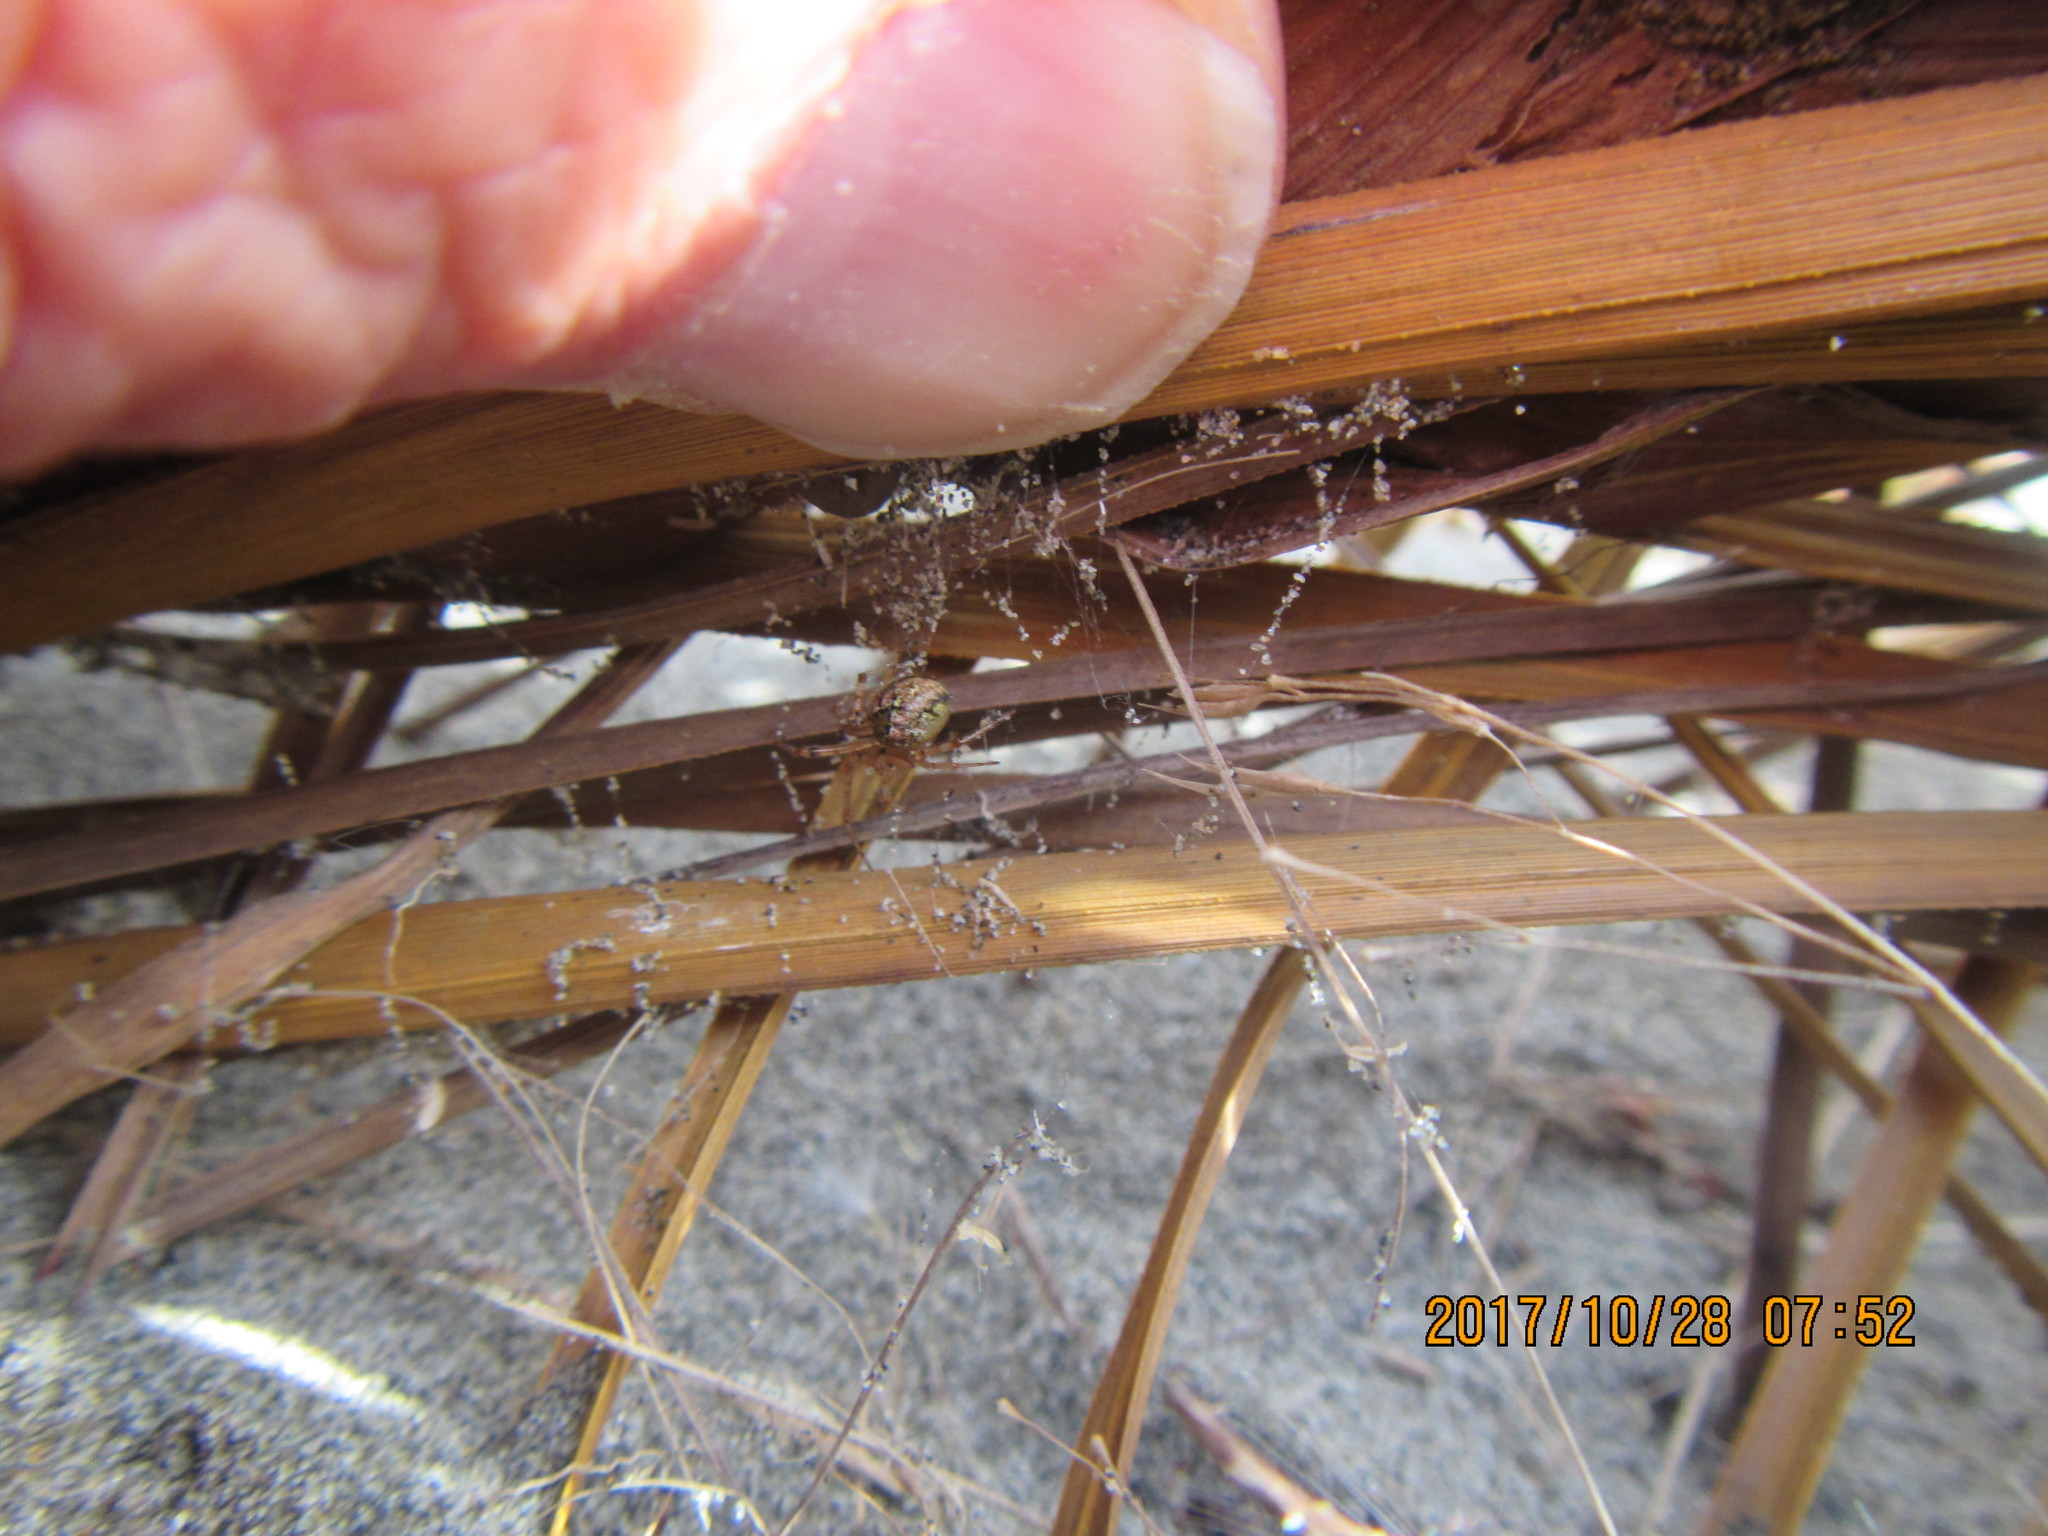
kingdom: Animalia
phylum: Arthropoda
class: Arachnida
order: Araneae
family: Theridiidae
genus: Cryptachaea
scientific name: Cryptachaea veruculata
